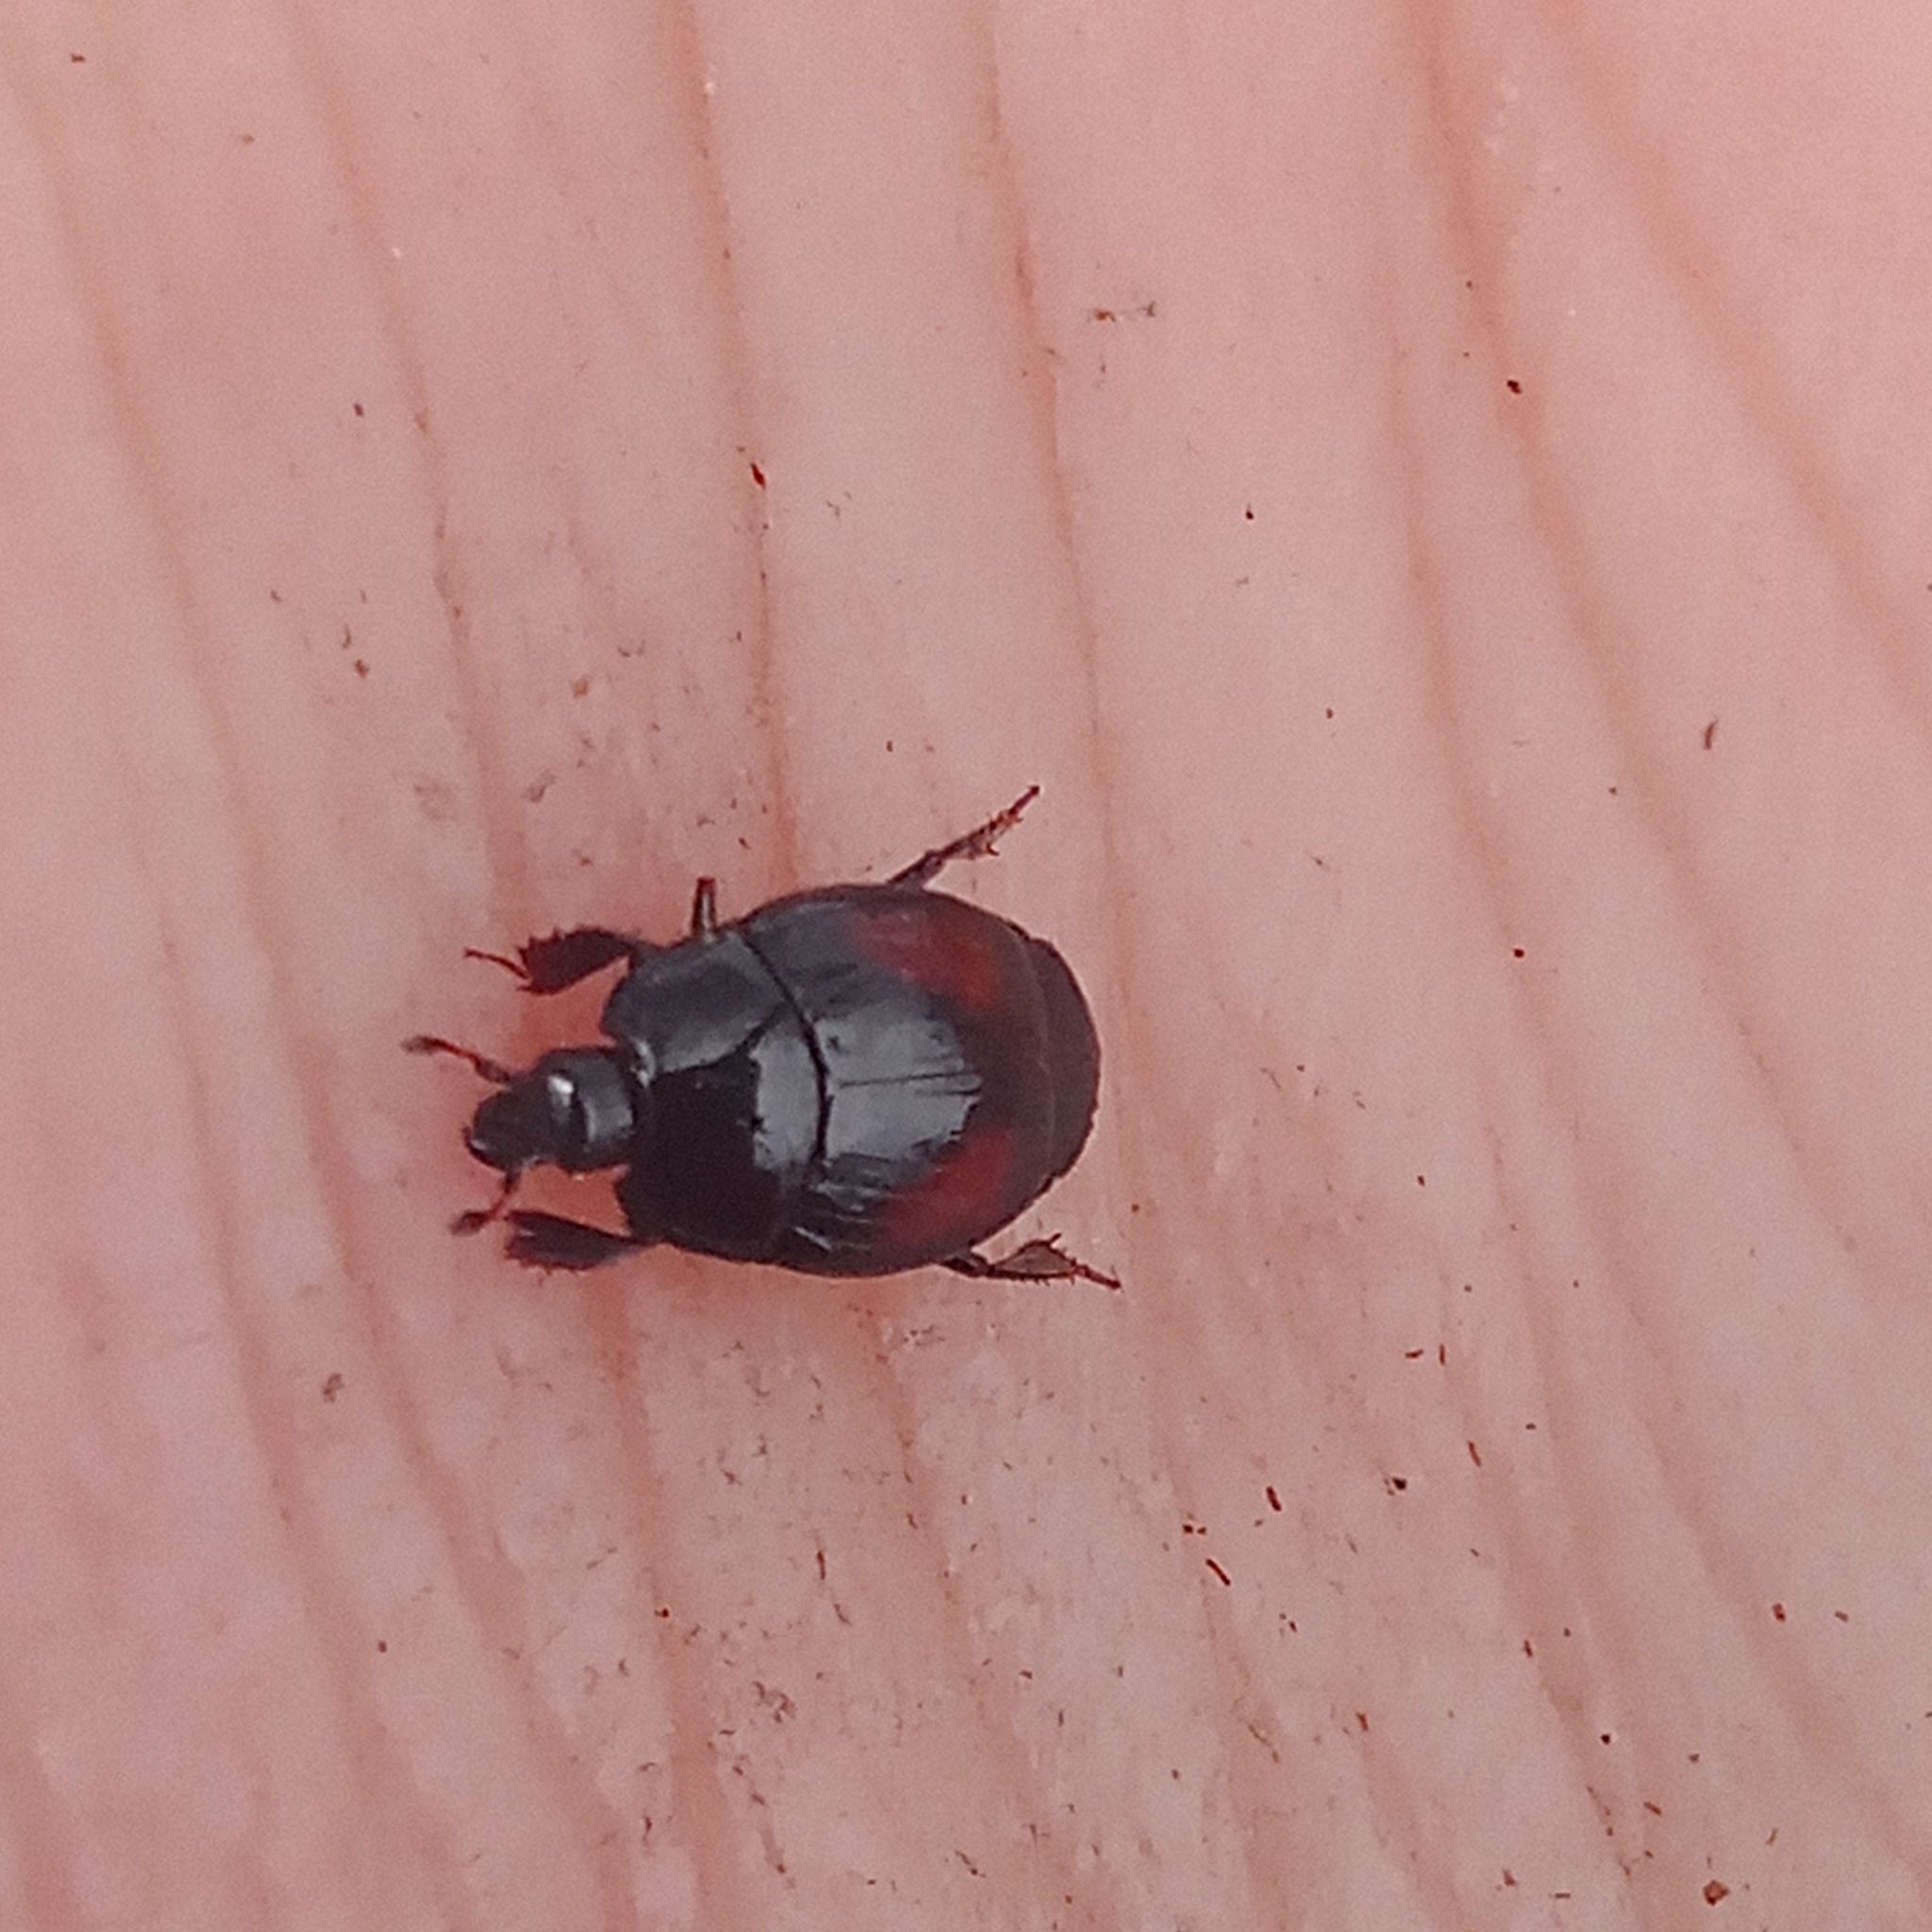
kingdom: Animalia
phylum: Arthropoda
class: Insecta
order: Coleoptera
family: Histeridae
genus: Margarinotus
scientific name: Margarinotus purpurascens
